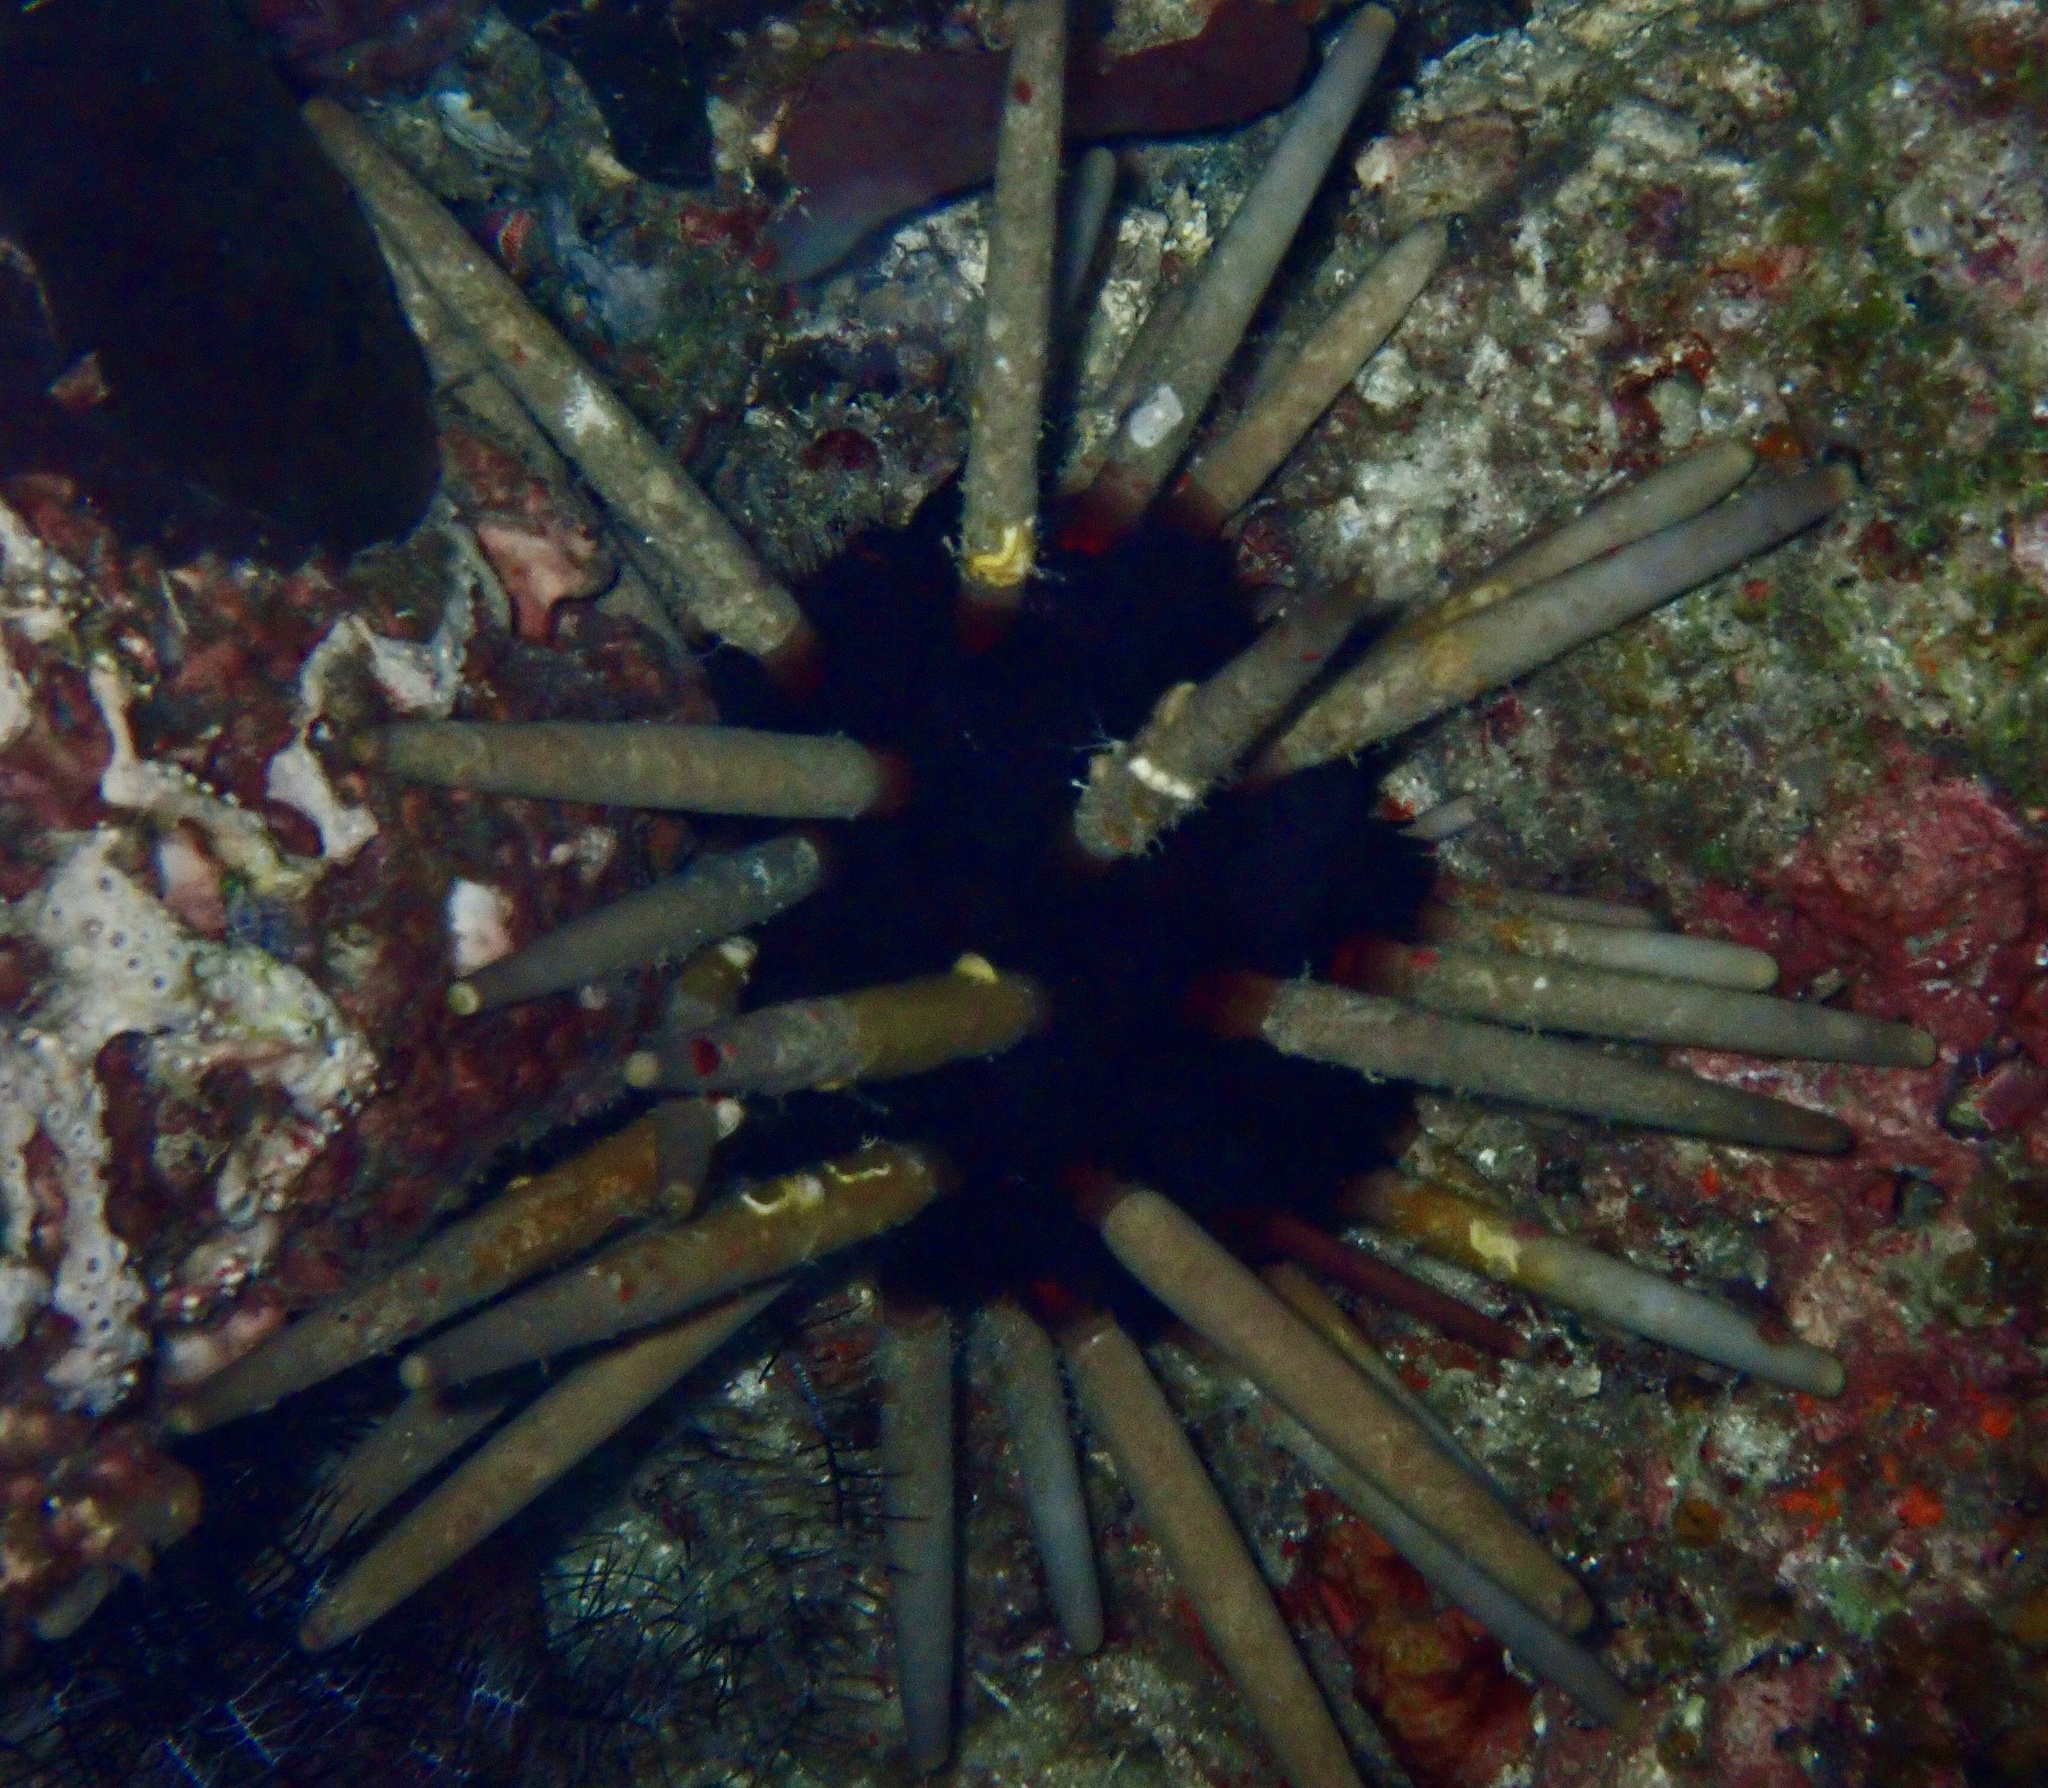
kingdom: Animalia
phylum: Echinodermata
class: Echinoidea
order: Cidaroida
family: Cidaridae
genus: Phyllacanthus
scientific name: Phyllacanthus imperialis
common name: Imperial urchin
